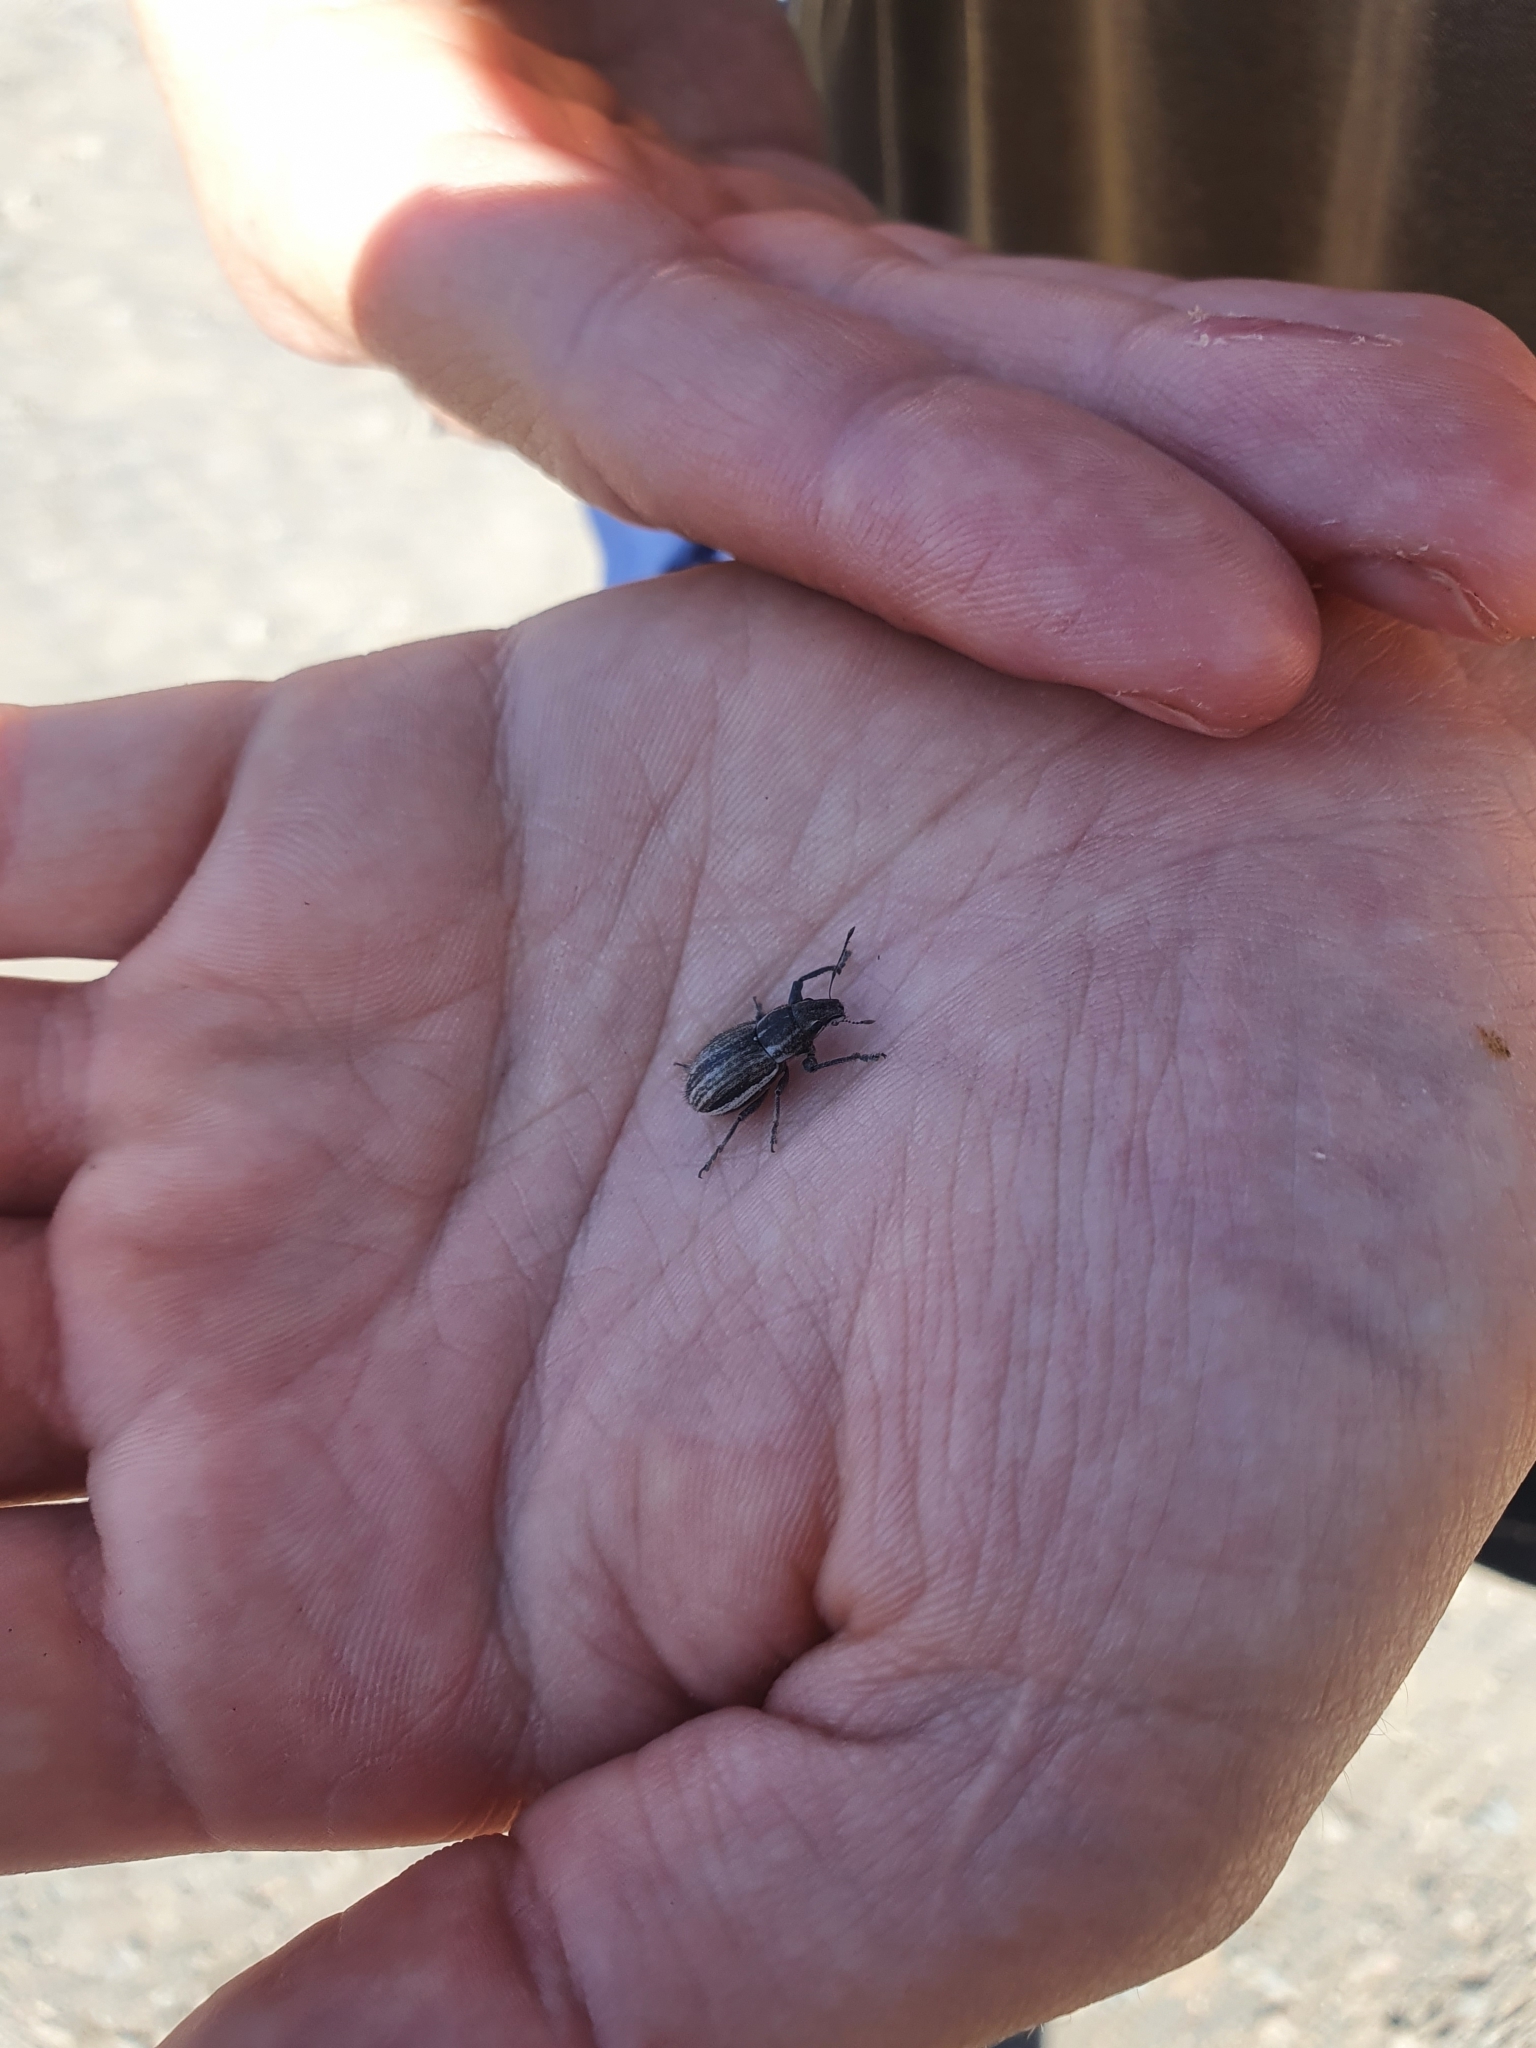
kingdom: Animalia
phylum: Arthropoda
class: Insecta
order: Coleoptera
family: Curculionidae
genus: Naupactus
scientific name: Naupactus leucoloma
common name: Whitefringed beetle
